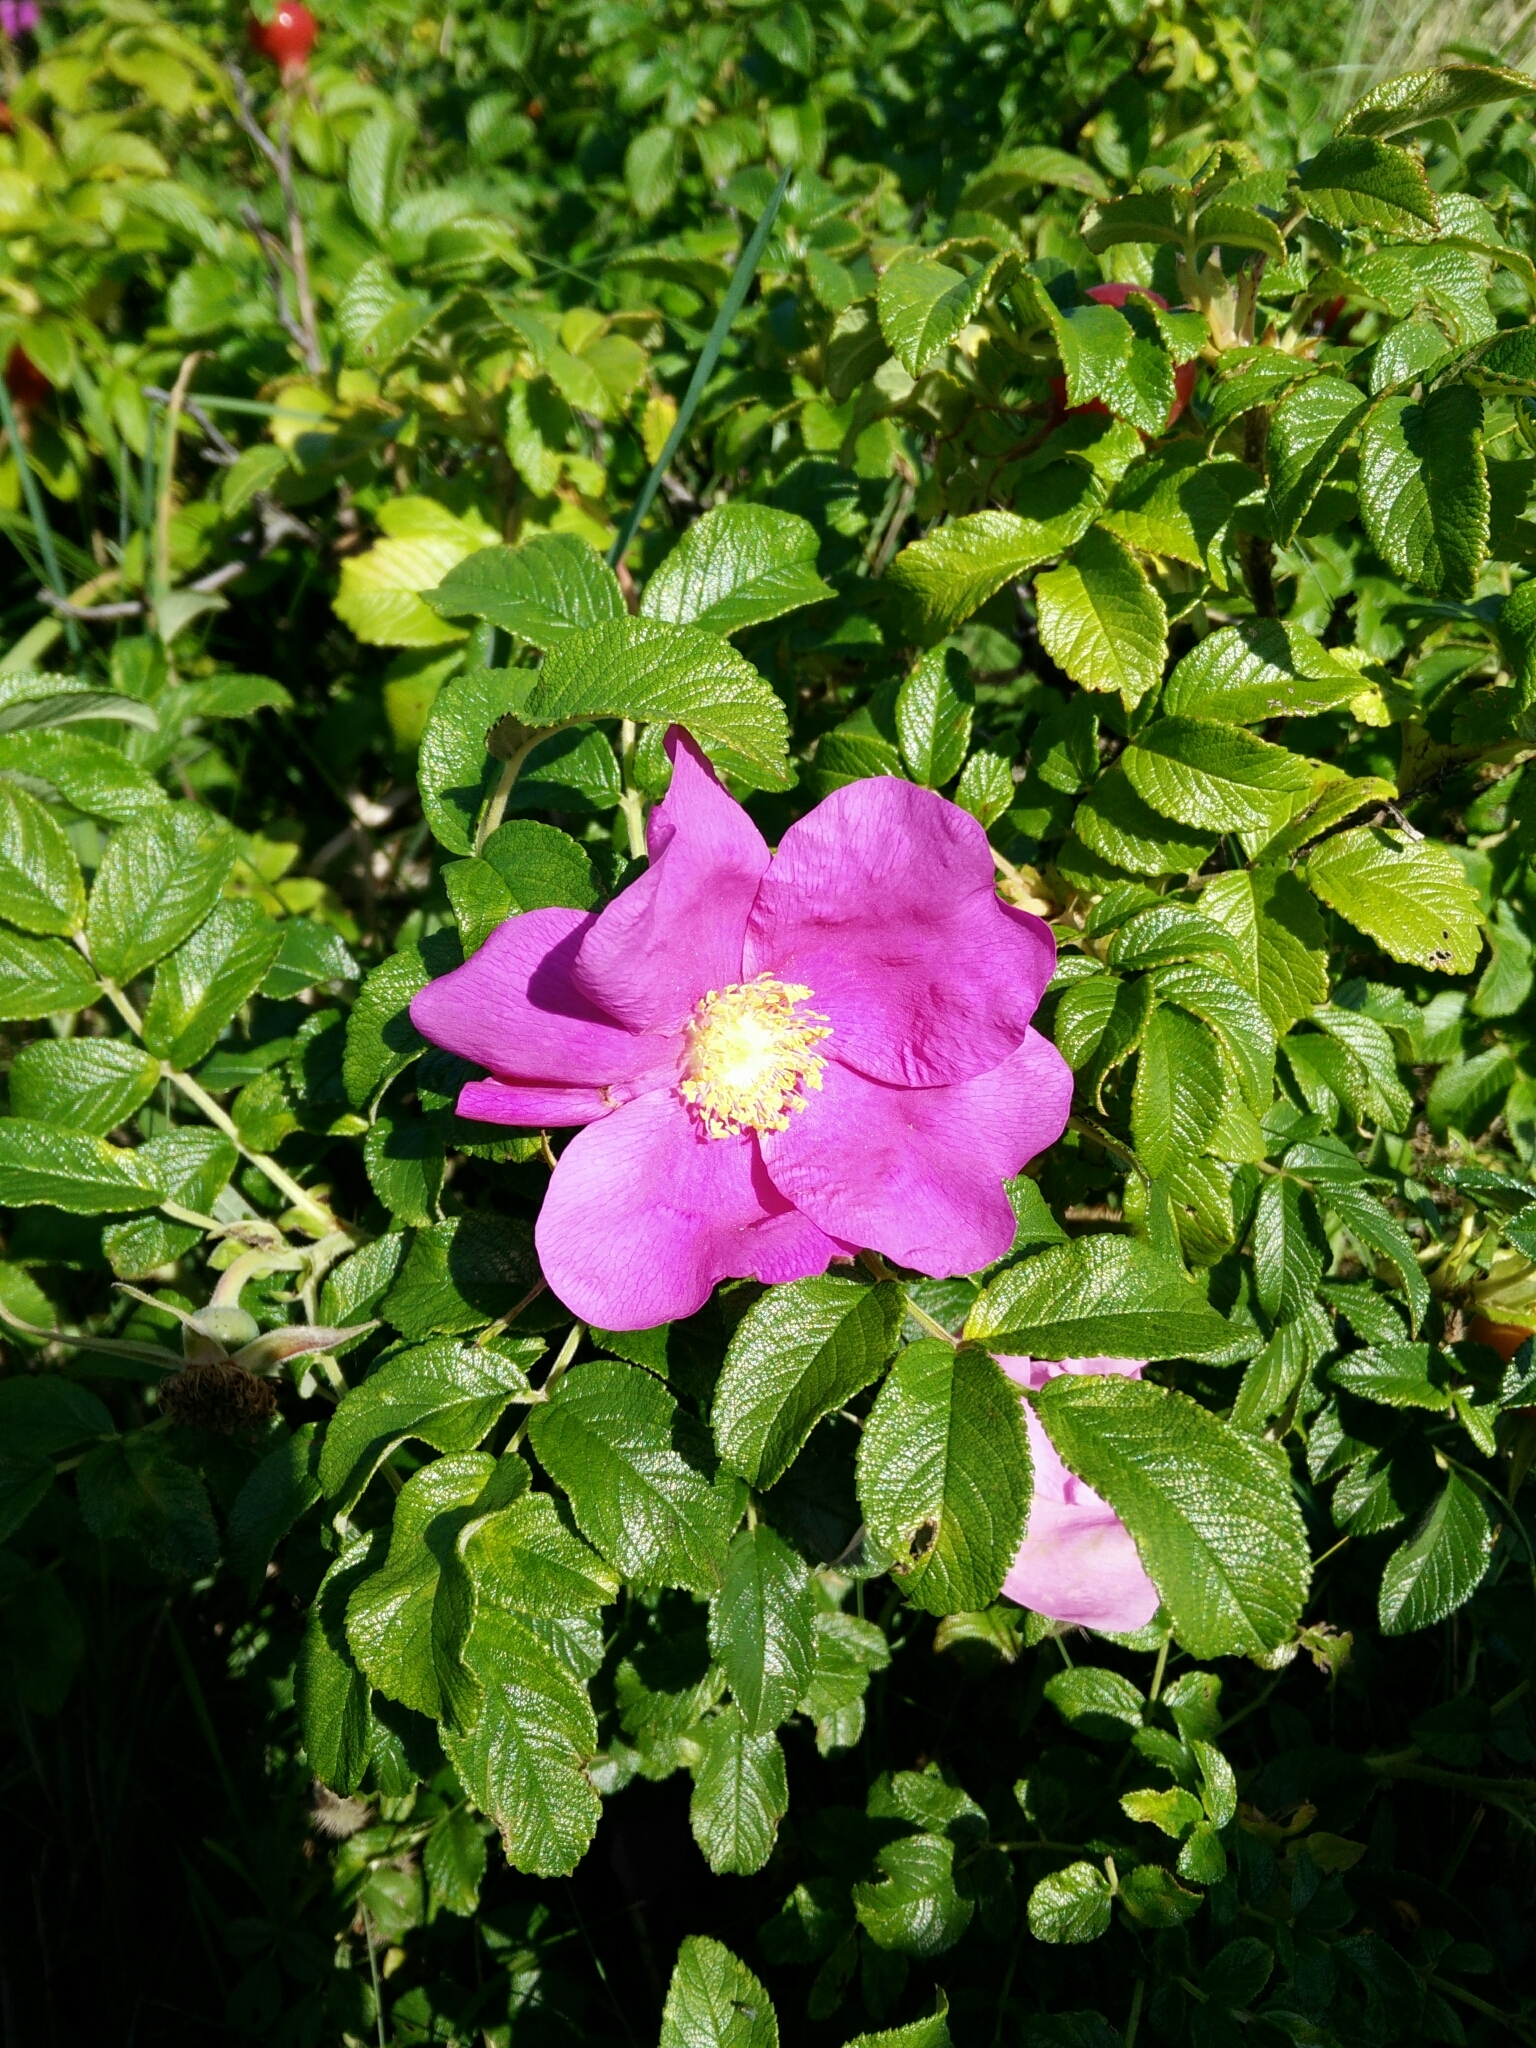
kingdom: Plantae
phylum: Tracheophyta
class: Magnoliopsida
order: Rosales
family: Rosaceae
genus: Rosa
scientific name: Rosa rugosa
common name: Japanese rose
